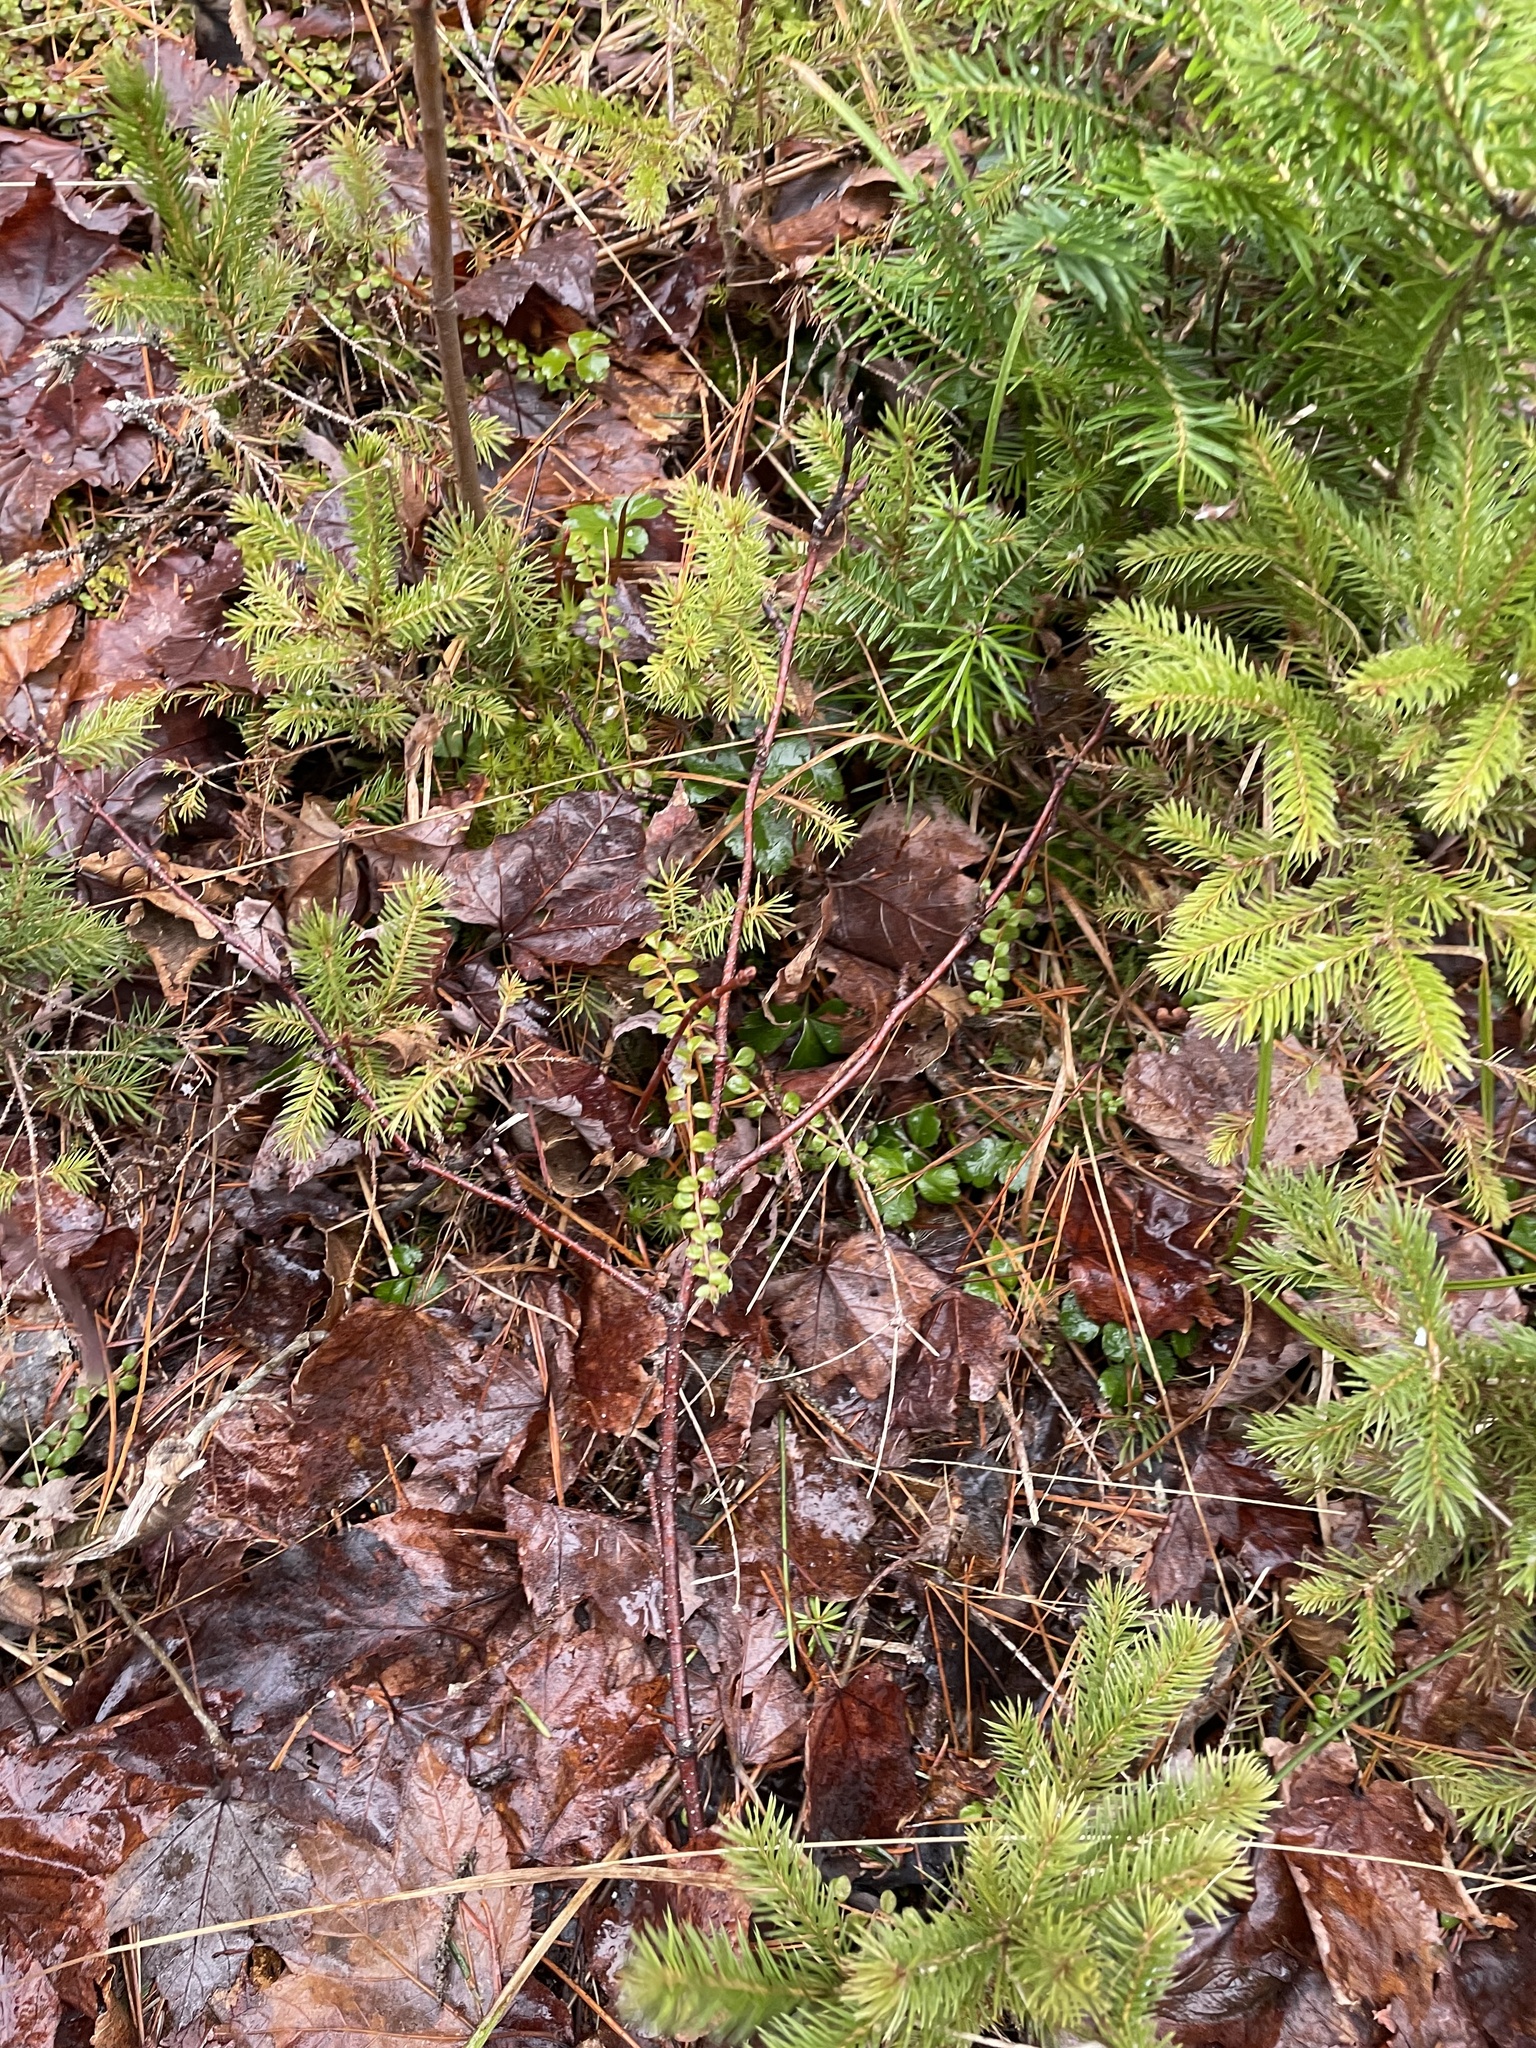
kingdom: Plantae
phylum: Tracheophyta
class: Magnoliopsida
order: Ericales
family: Ericaceae
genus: Gaultheria
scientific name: Gaultheria hispidula
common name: Cancer wintergreen
